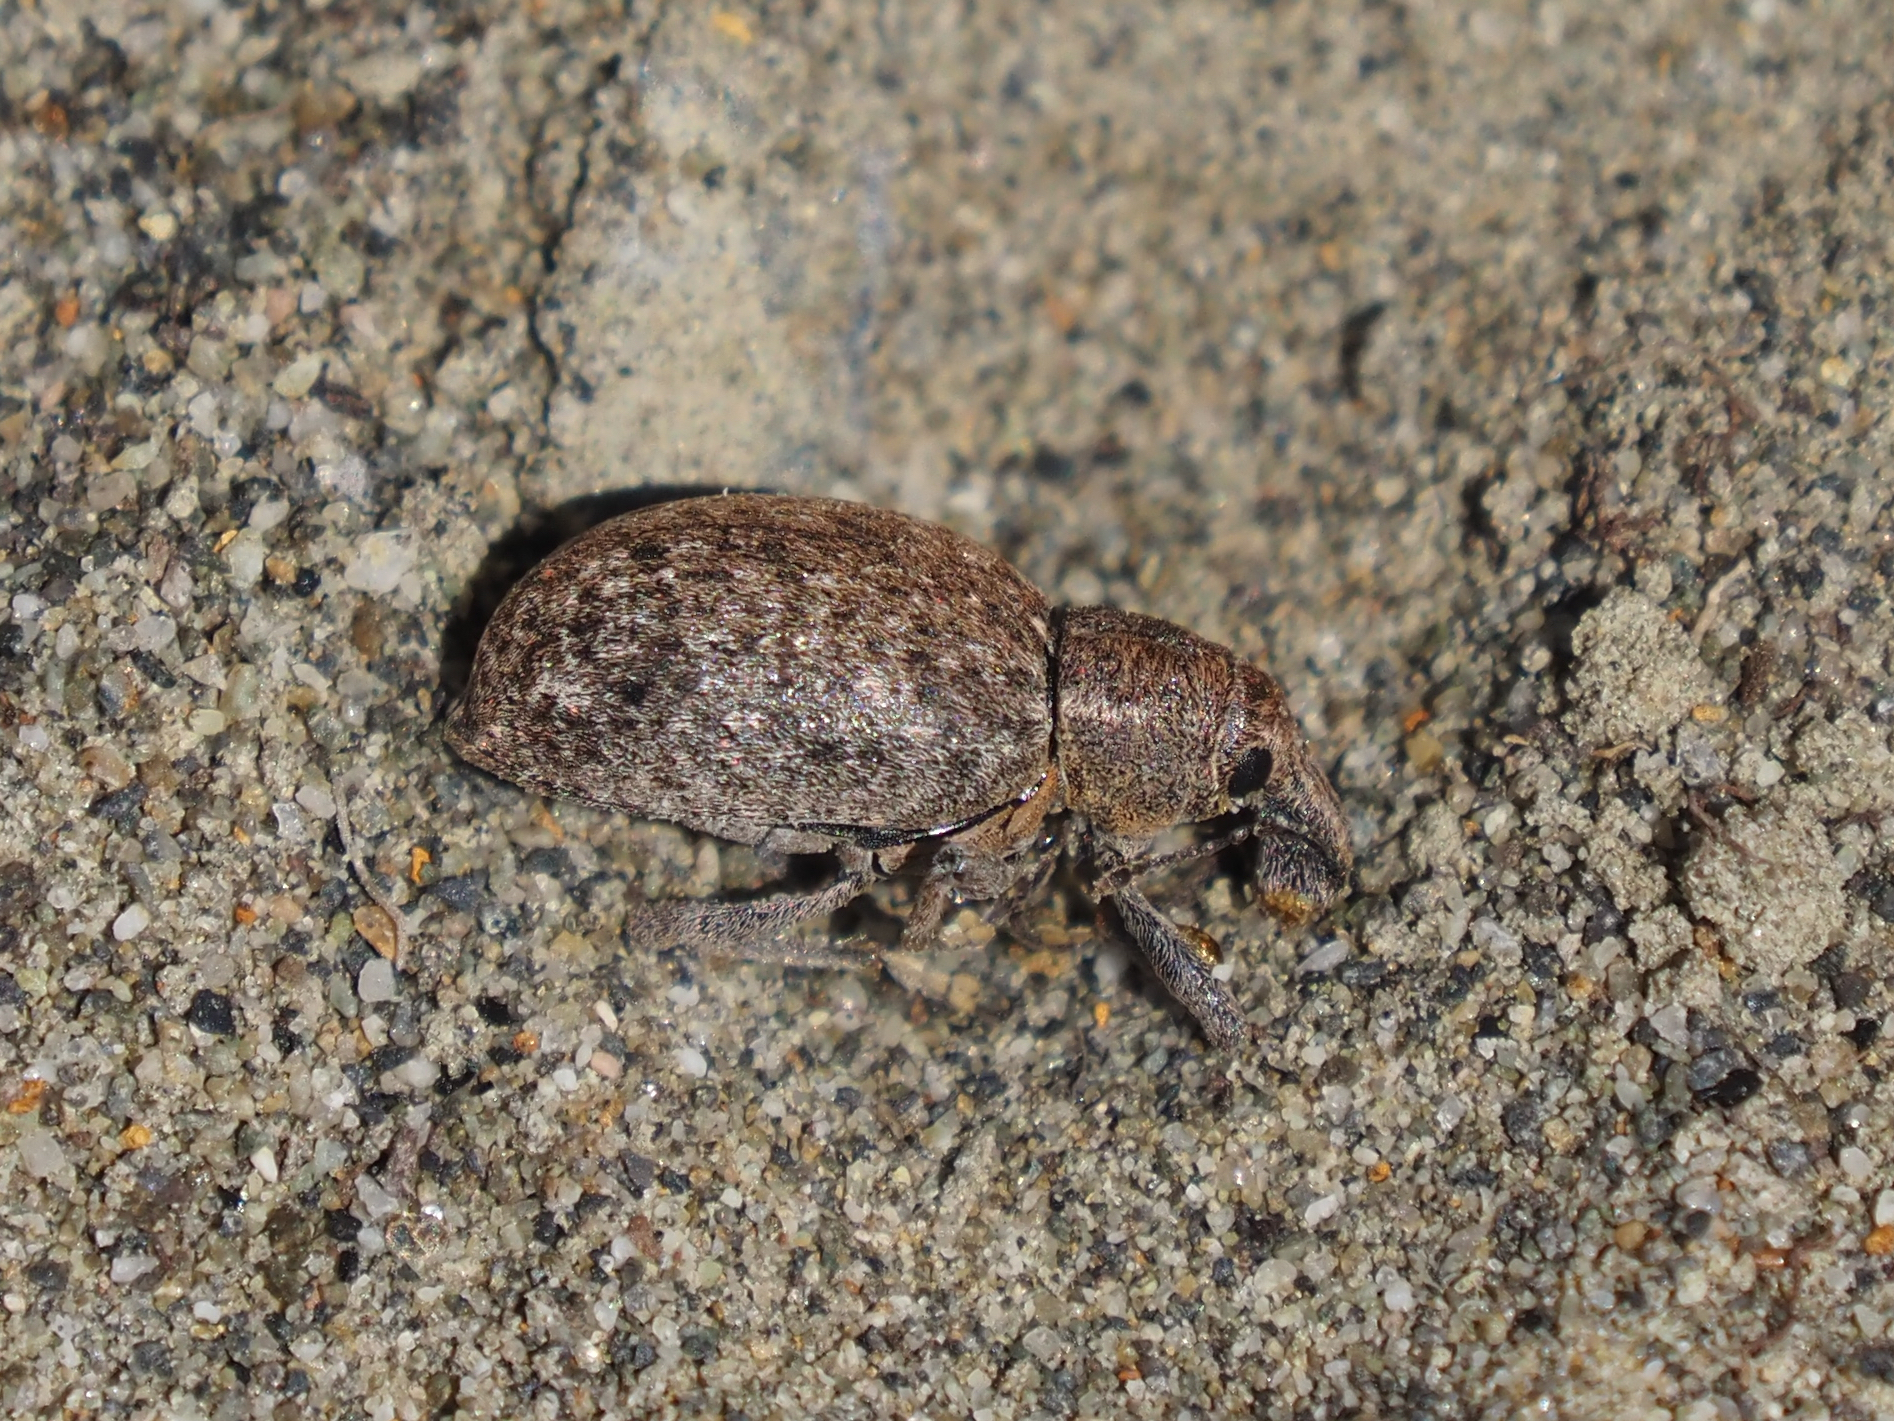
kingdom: Animalia
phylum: Arthropoda
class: Insecta
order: Coleoptera
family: Curculionidae
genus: Trichalophus
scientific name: Trichalophus alternatus
